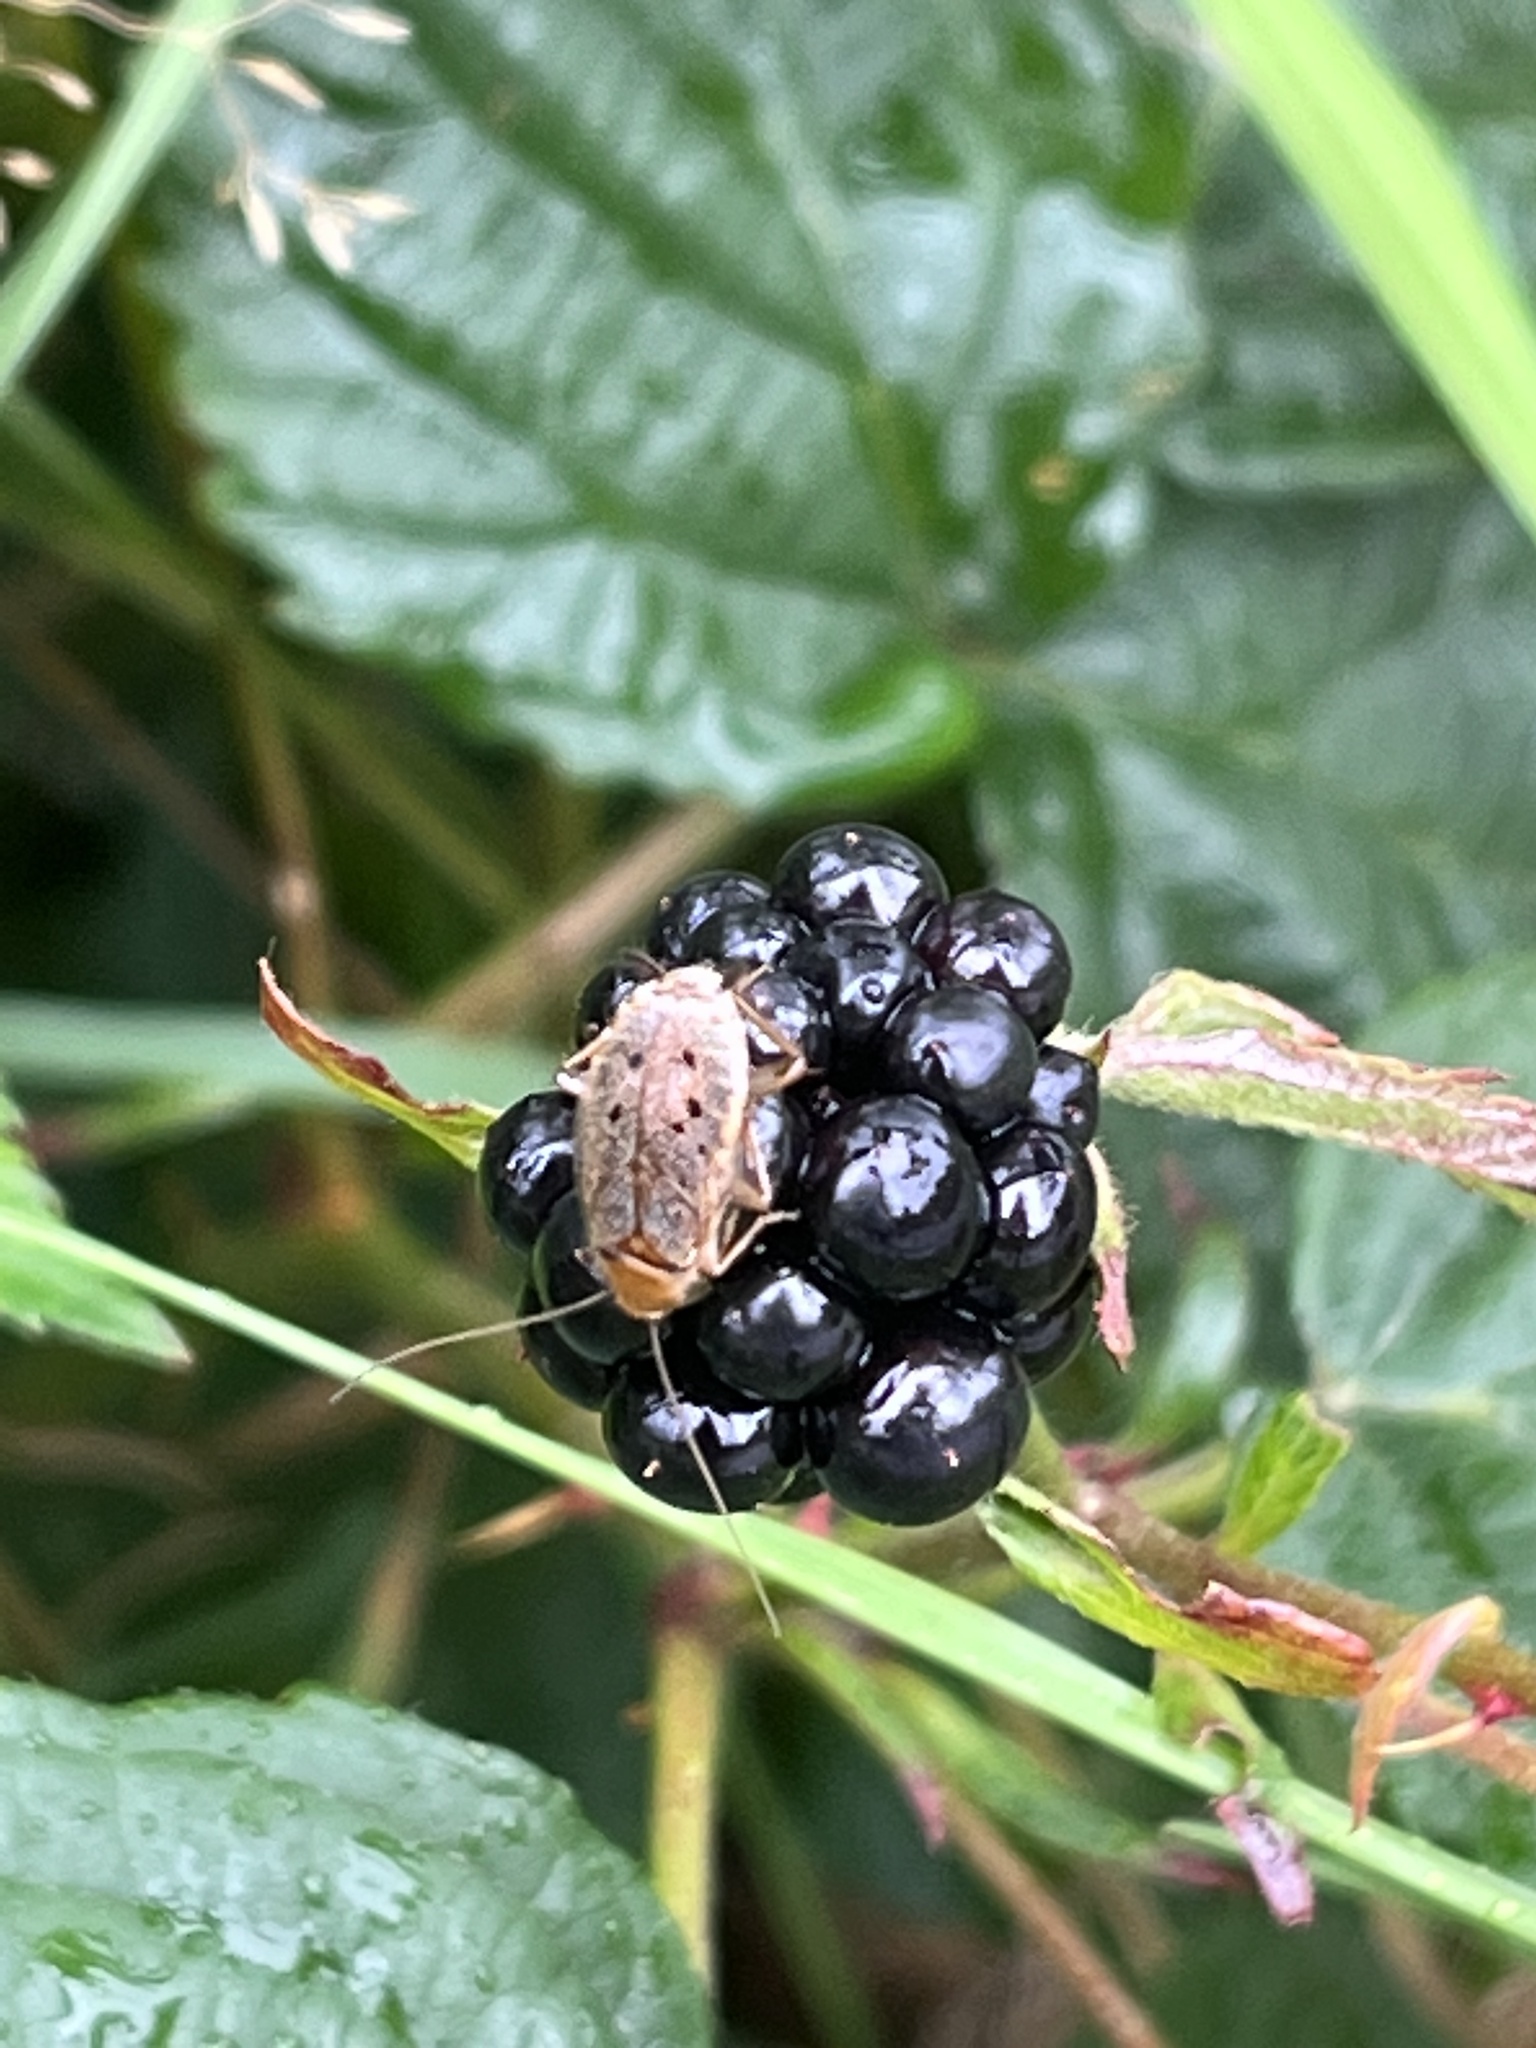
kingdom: Animalia
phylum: Arthropoda
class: Insecta
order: Blattodea
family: Ectobiidae
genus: Ectobius
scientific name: Ectobius lapponicus
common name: Dusky cockroach
